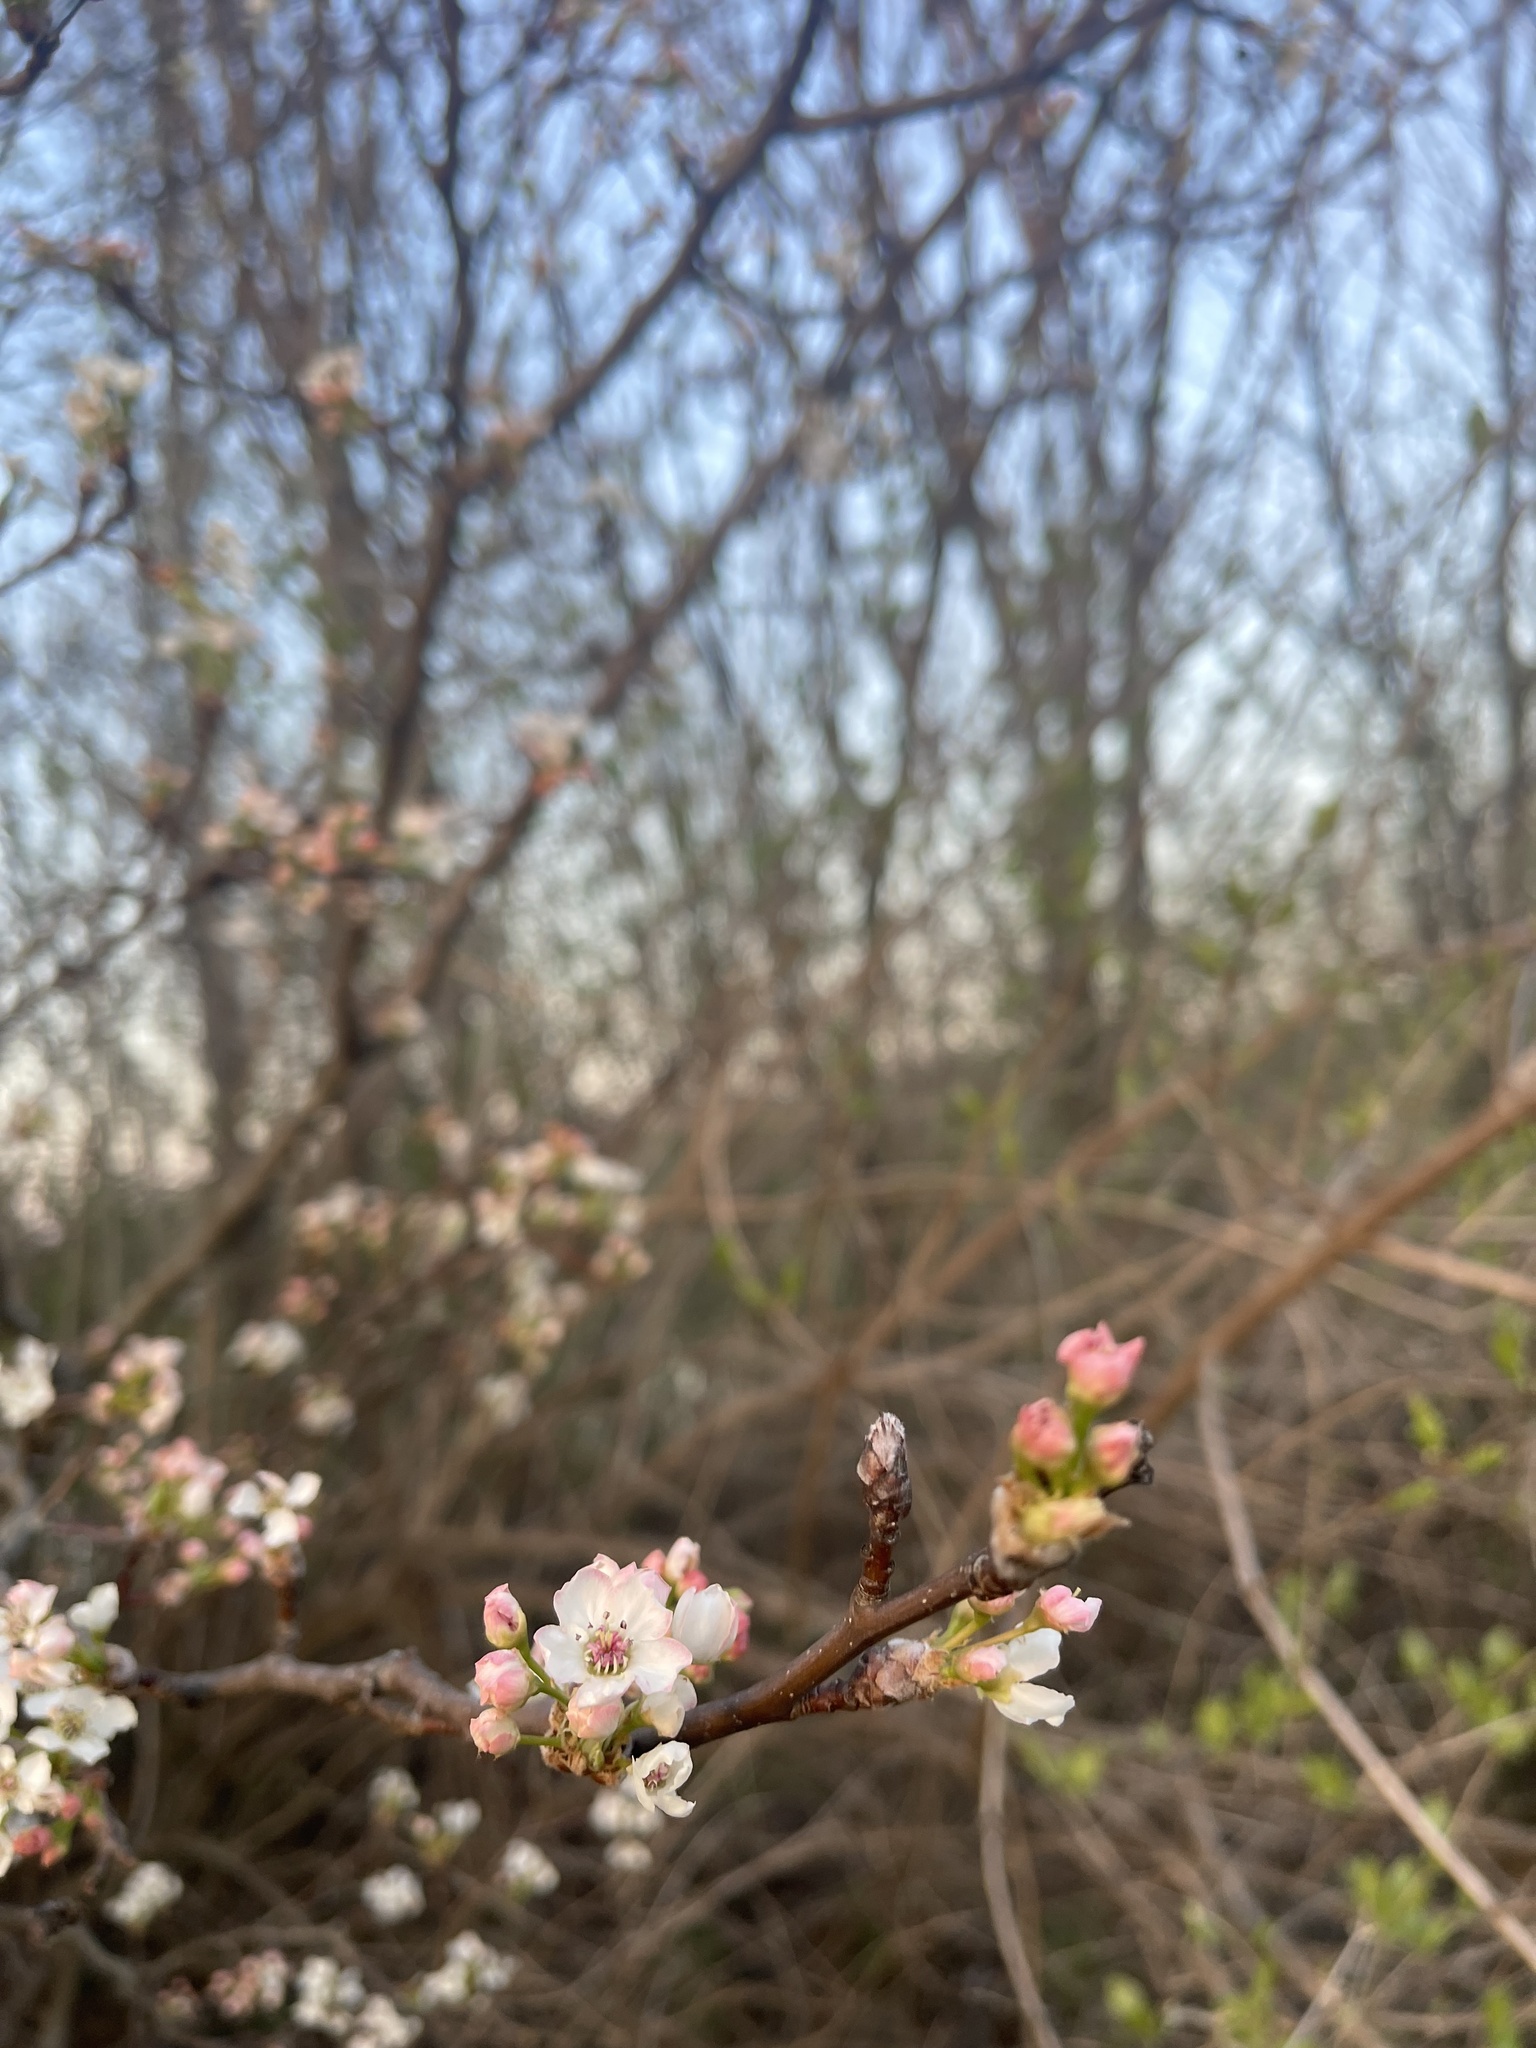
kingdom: Plantae
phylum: Tracheophyta
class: Magnoliopsida
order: Rosales
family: Rosaceae
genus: Pyrus
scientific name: Pyrus calleryana
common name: Callery pear
